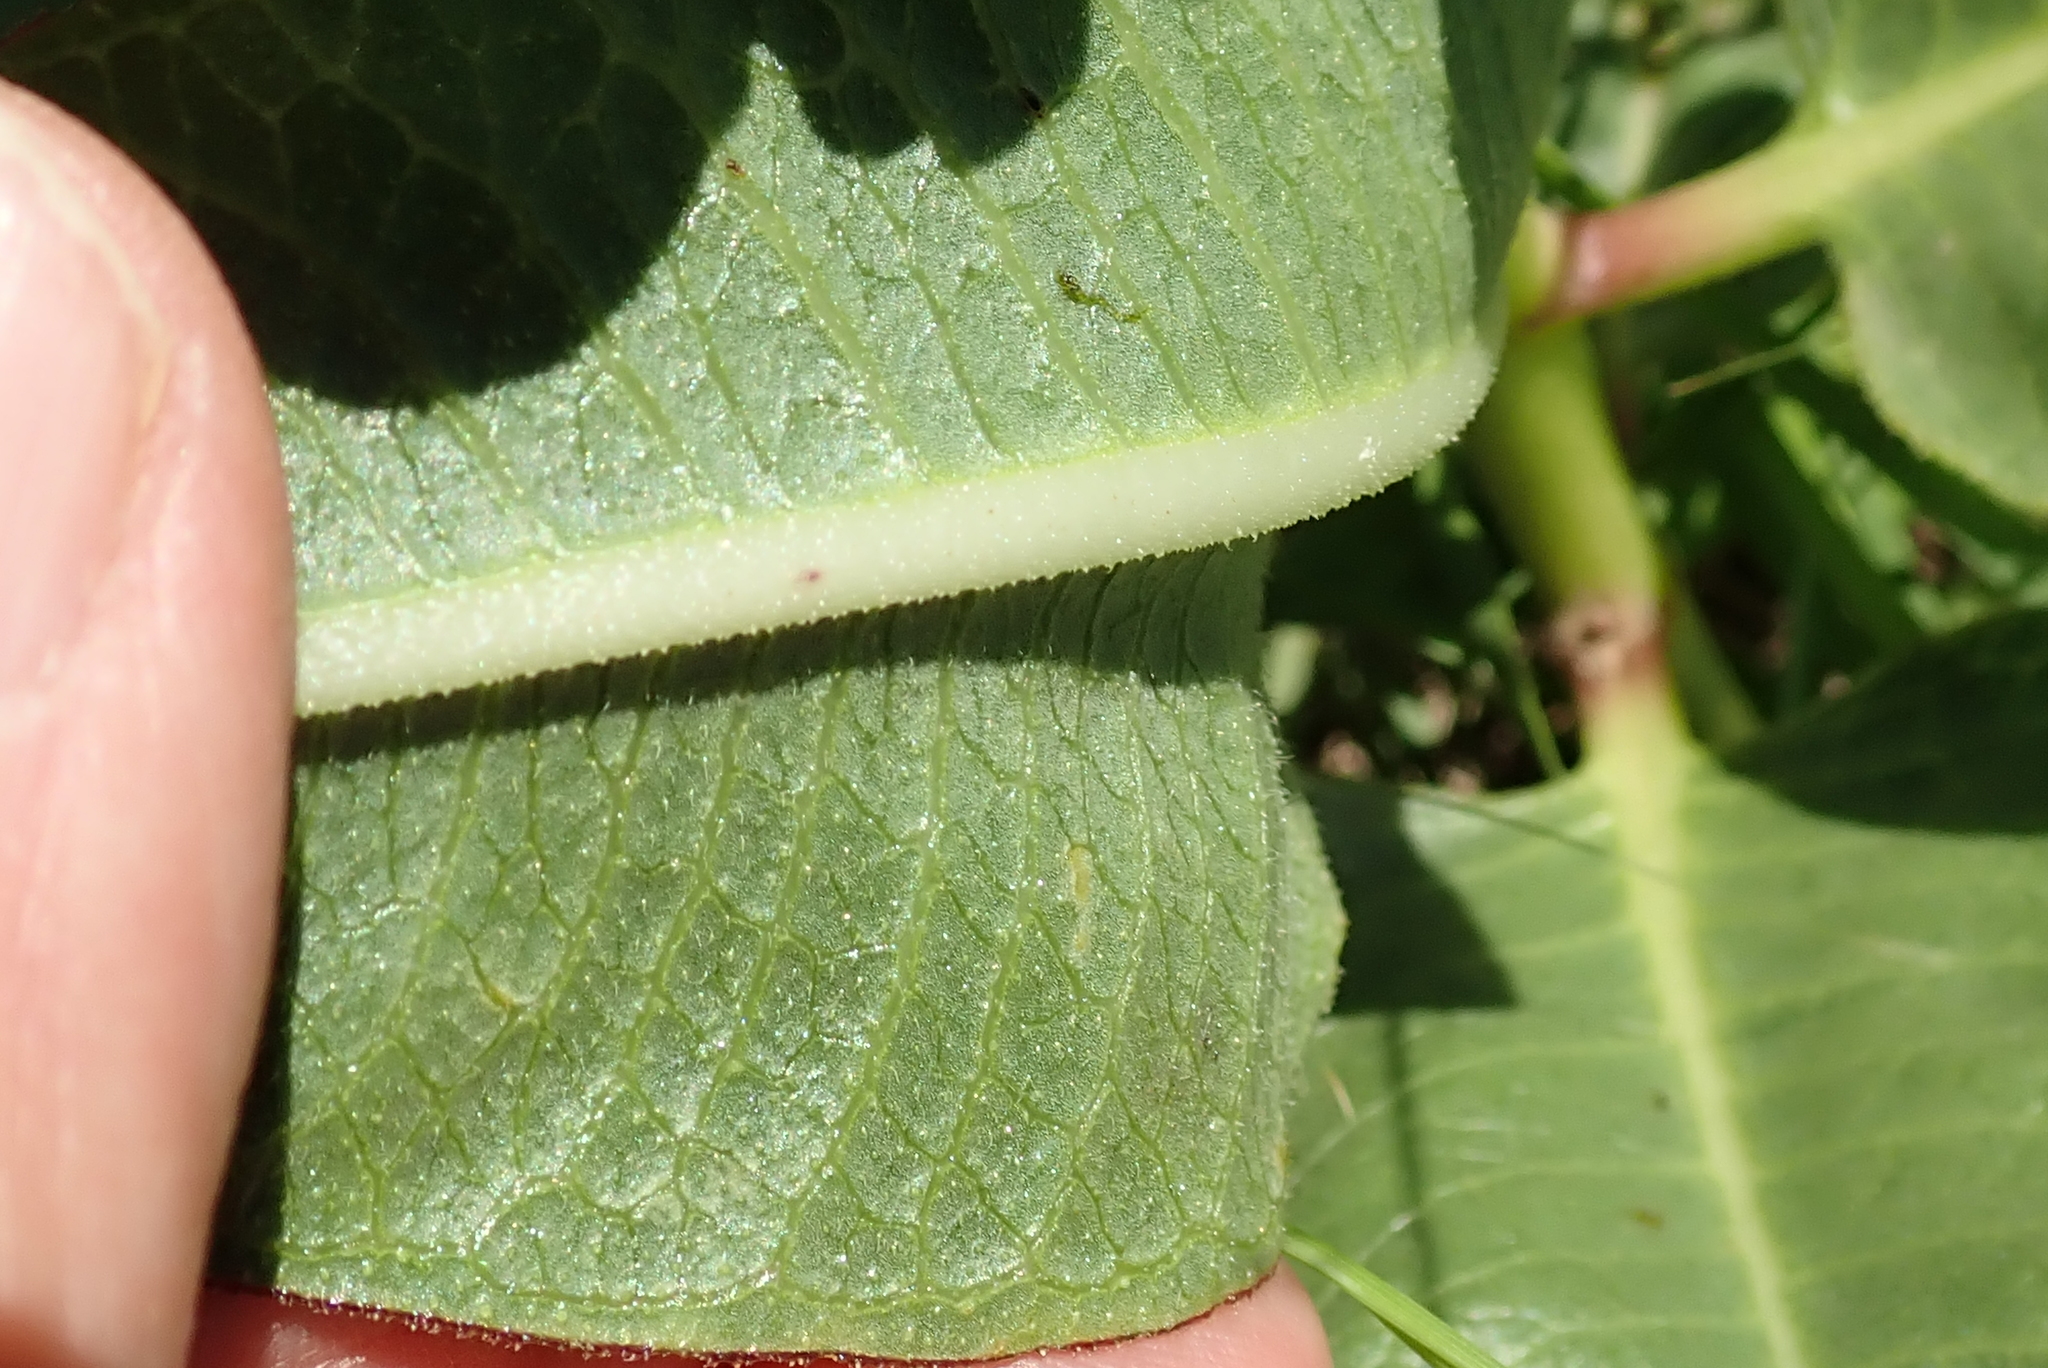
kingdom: Plantae
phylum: Tracheophyta
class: Magnoliopsida
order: Gentianales
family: Apocynaceae
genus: Pachycarpus
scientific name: Pachycarpus plicatus
